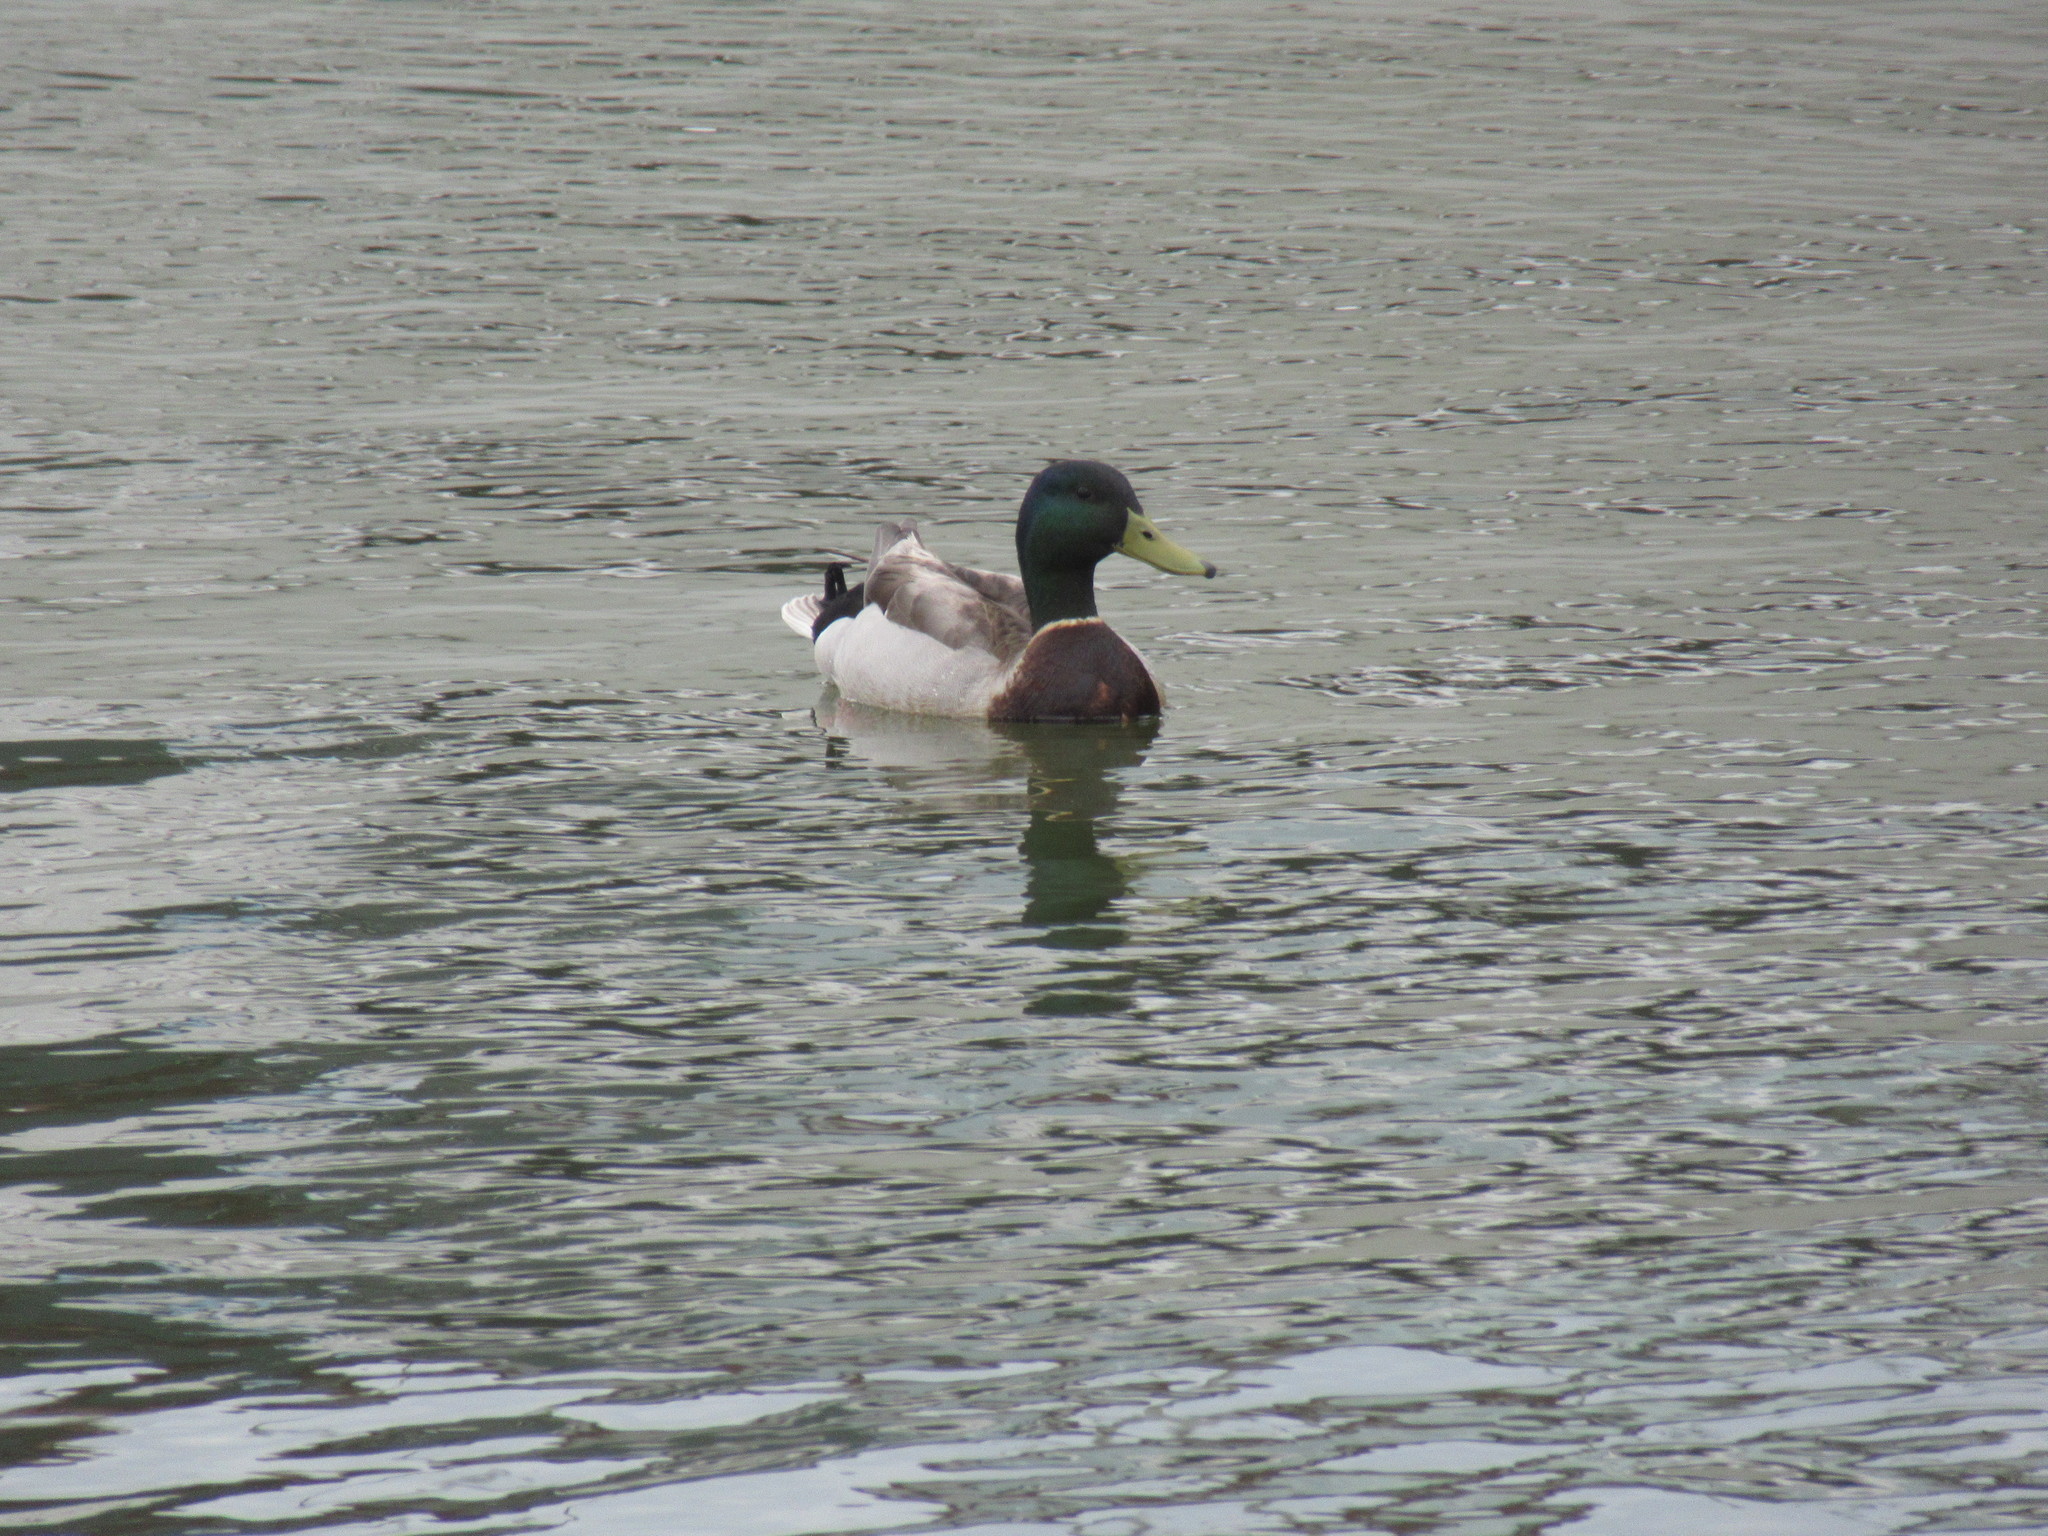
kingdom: Animalia
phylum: Chordata
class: Aves
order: Anseriformes
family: Anatidae
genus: Anas
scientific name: Anas platyrhynchos
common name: Mallard
